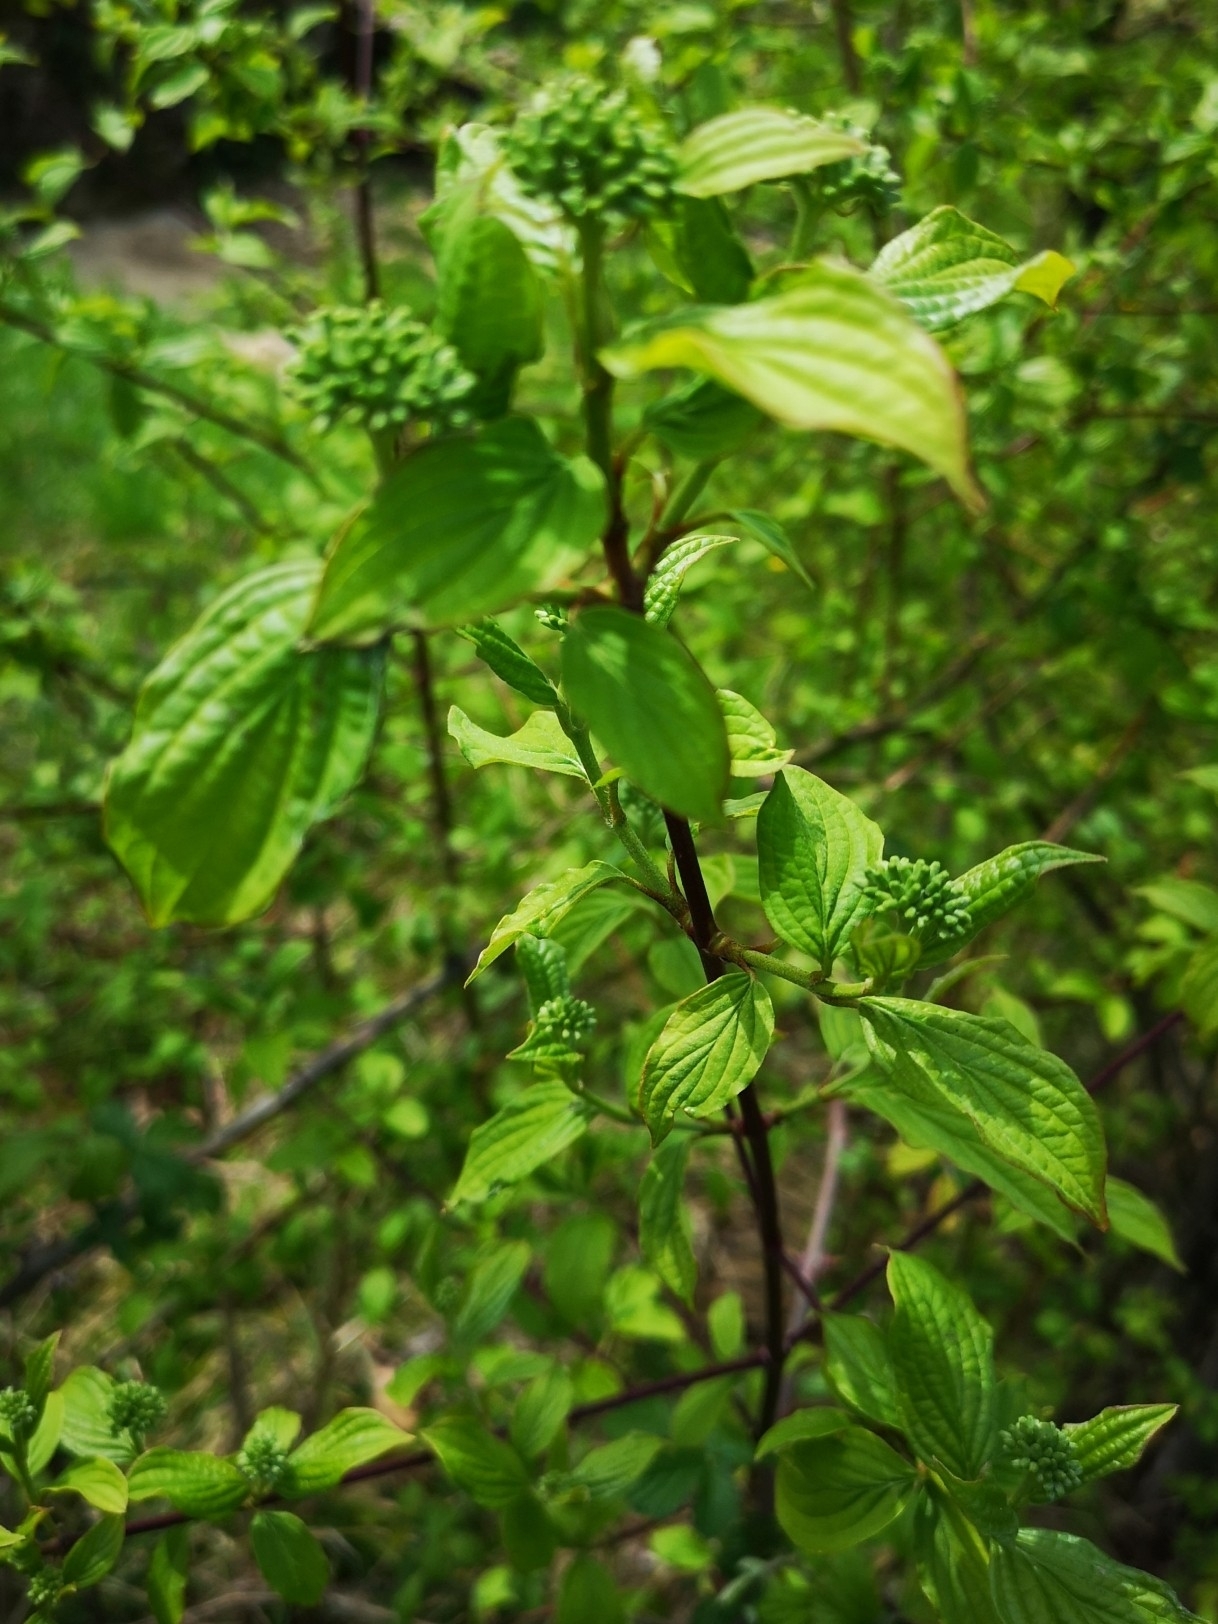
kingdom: Plantae
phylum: Tracheophyta
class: Magnoliopsida
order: Cornales
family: Cornaceae
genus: Cornus
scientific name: Cornus sanguinea
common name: Dogwood
